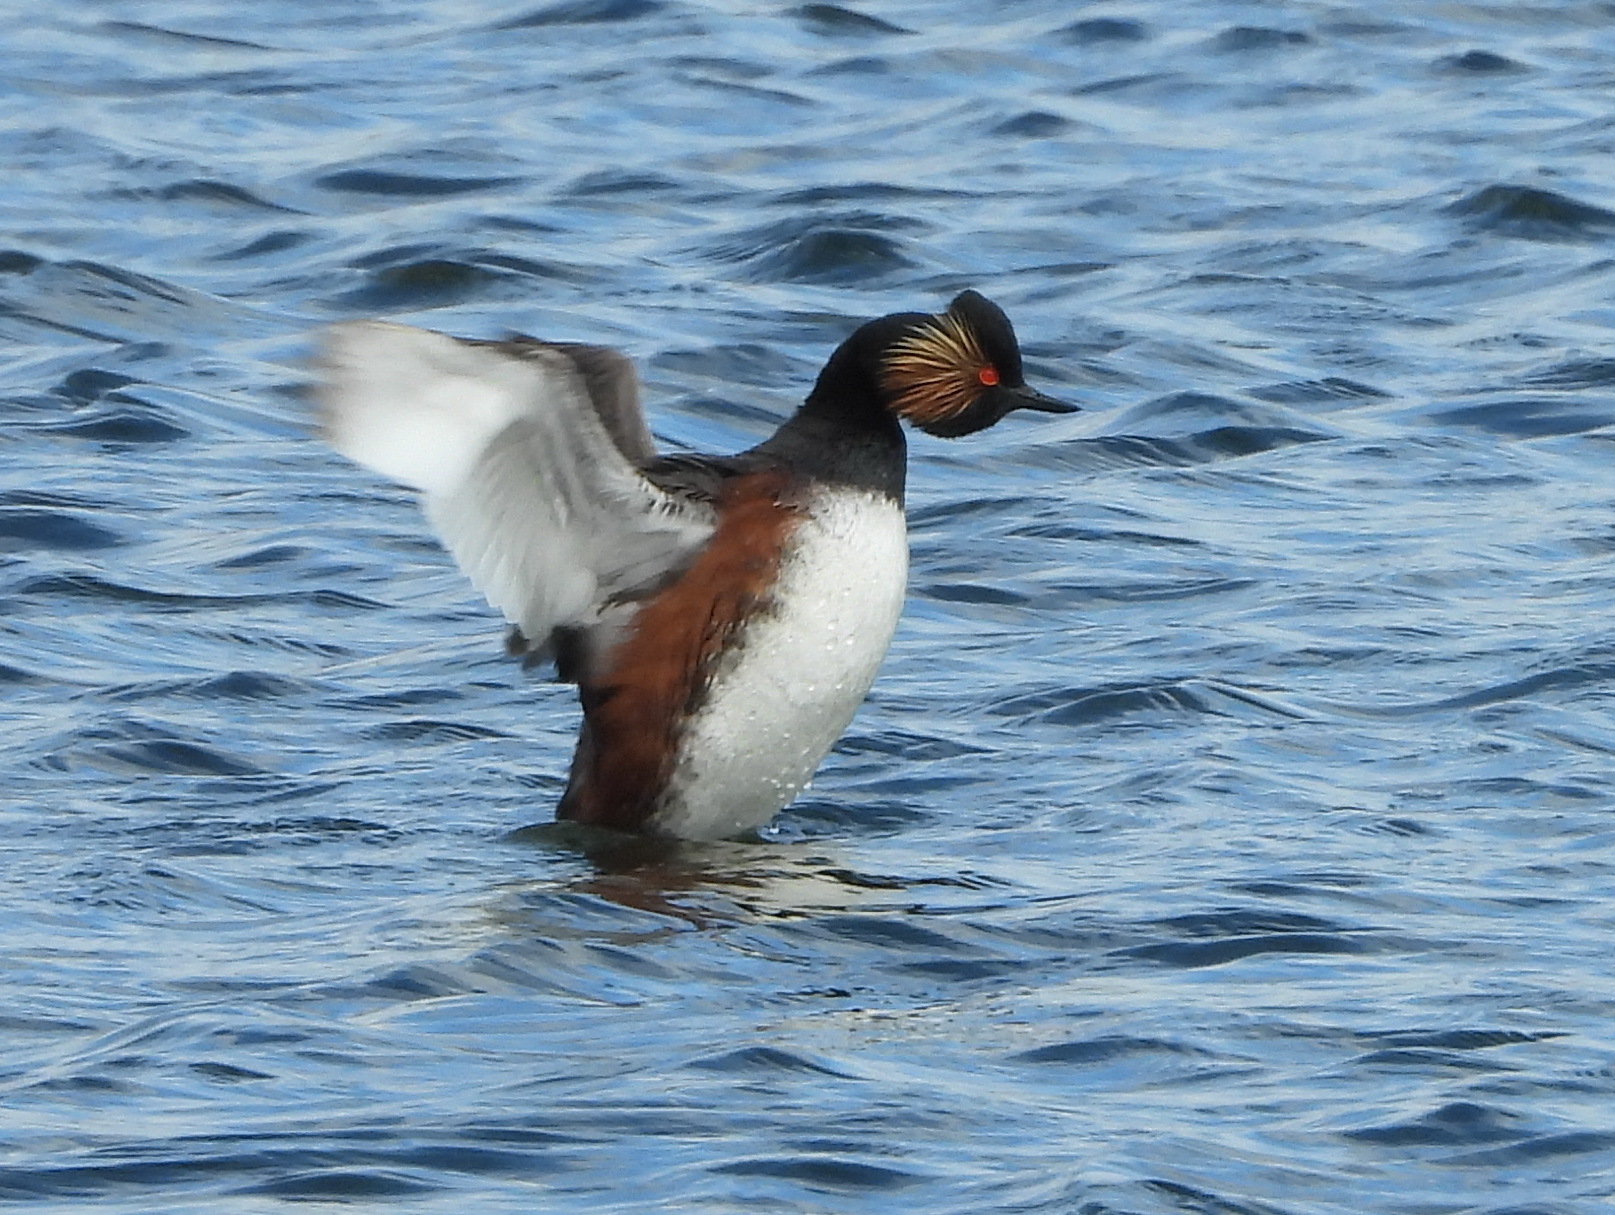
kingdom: Animalia
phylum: Chordata
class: Aves
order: Podicipediformes
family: Podicipedidae
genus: Podiceps
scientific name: Podiceps nigricollis
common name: Black-necked grebe
